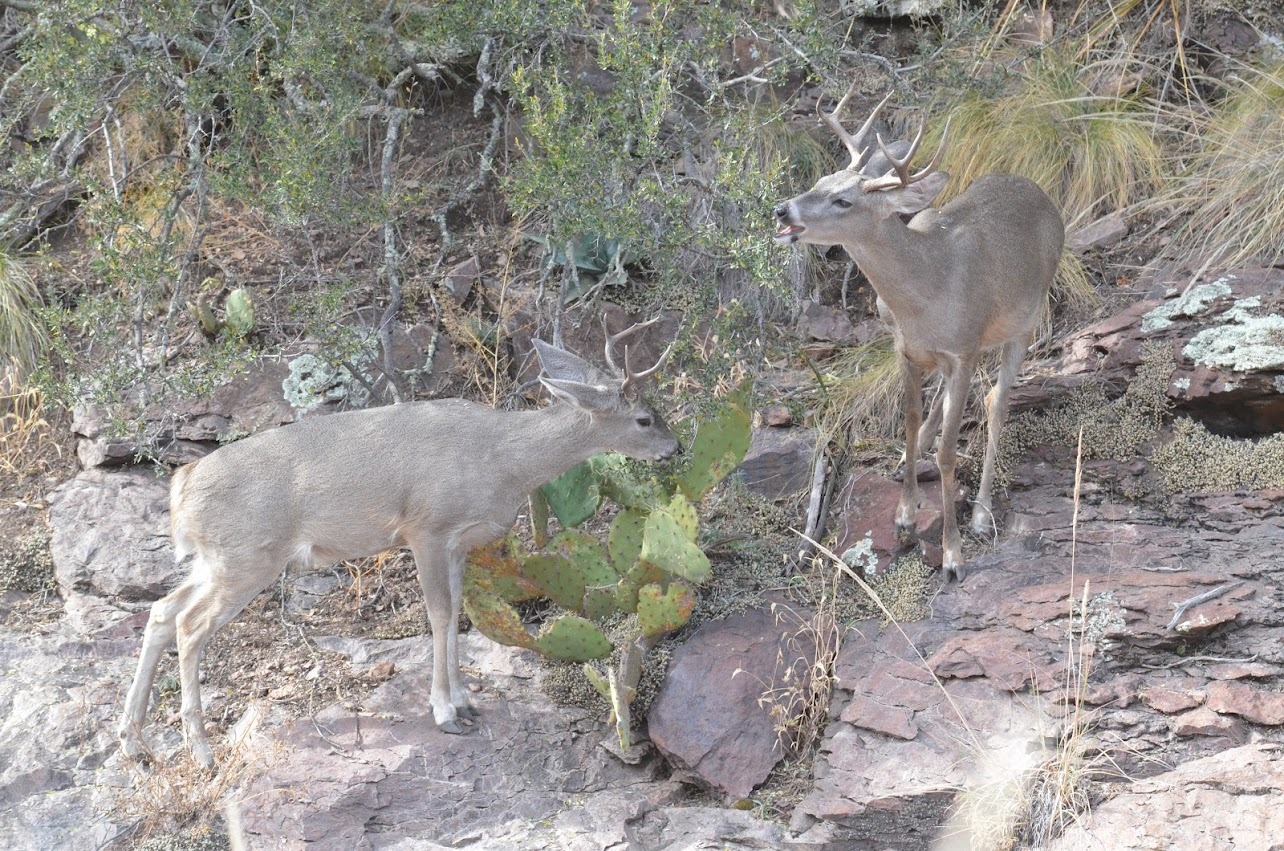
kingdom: Animalia
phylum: Chordata
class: Mammalia
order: Artiodactyla
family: Cervidae
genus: Odocoileus
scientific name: Odocoileus virginianus
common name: White-tailed deer
